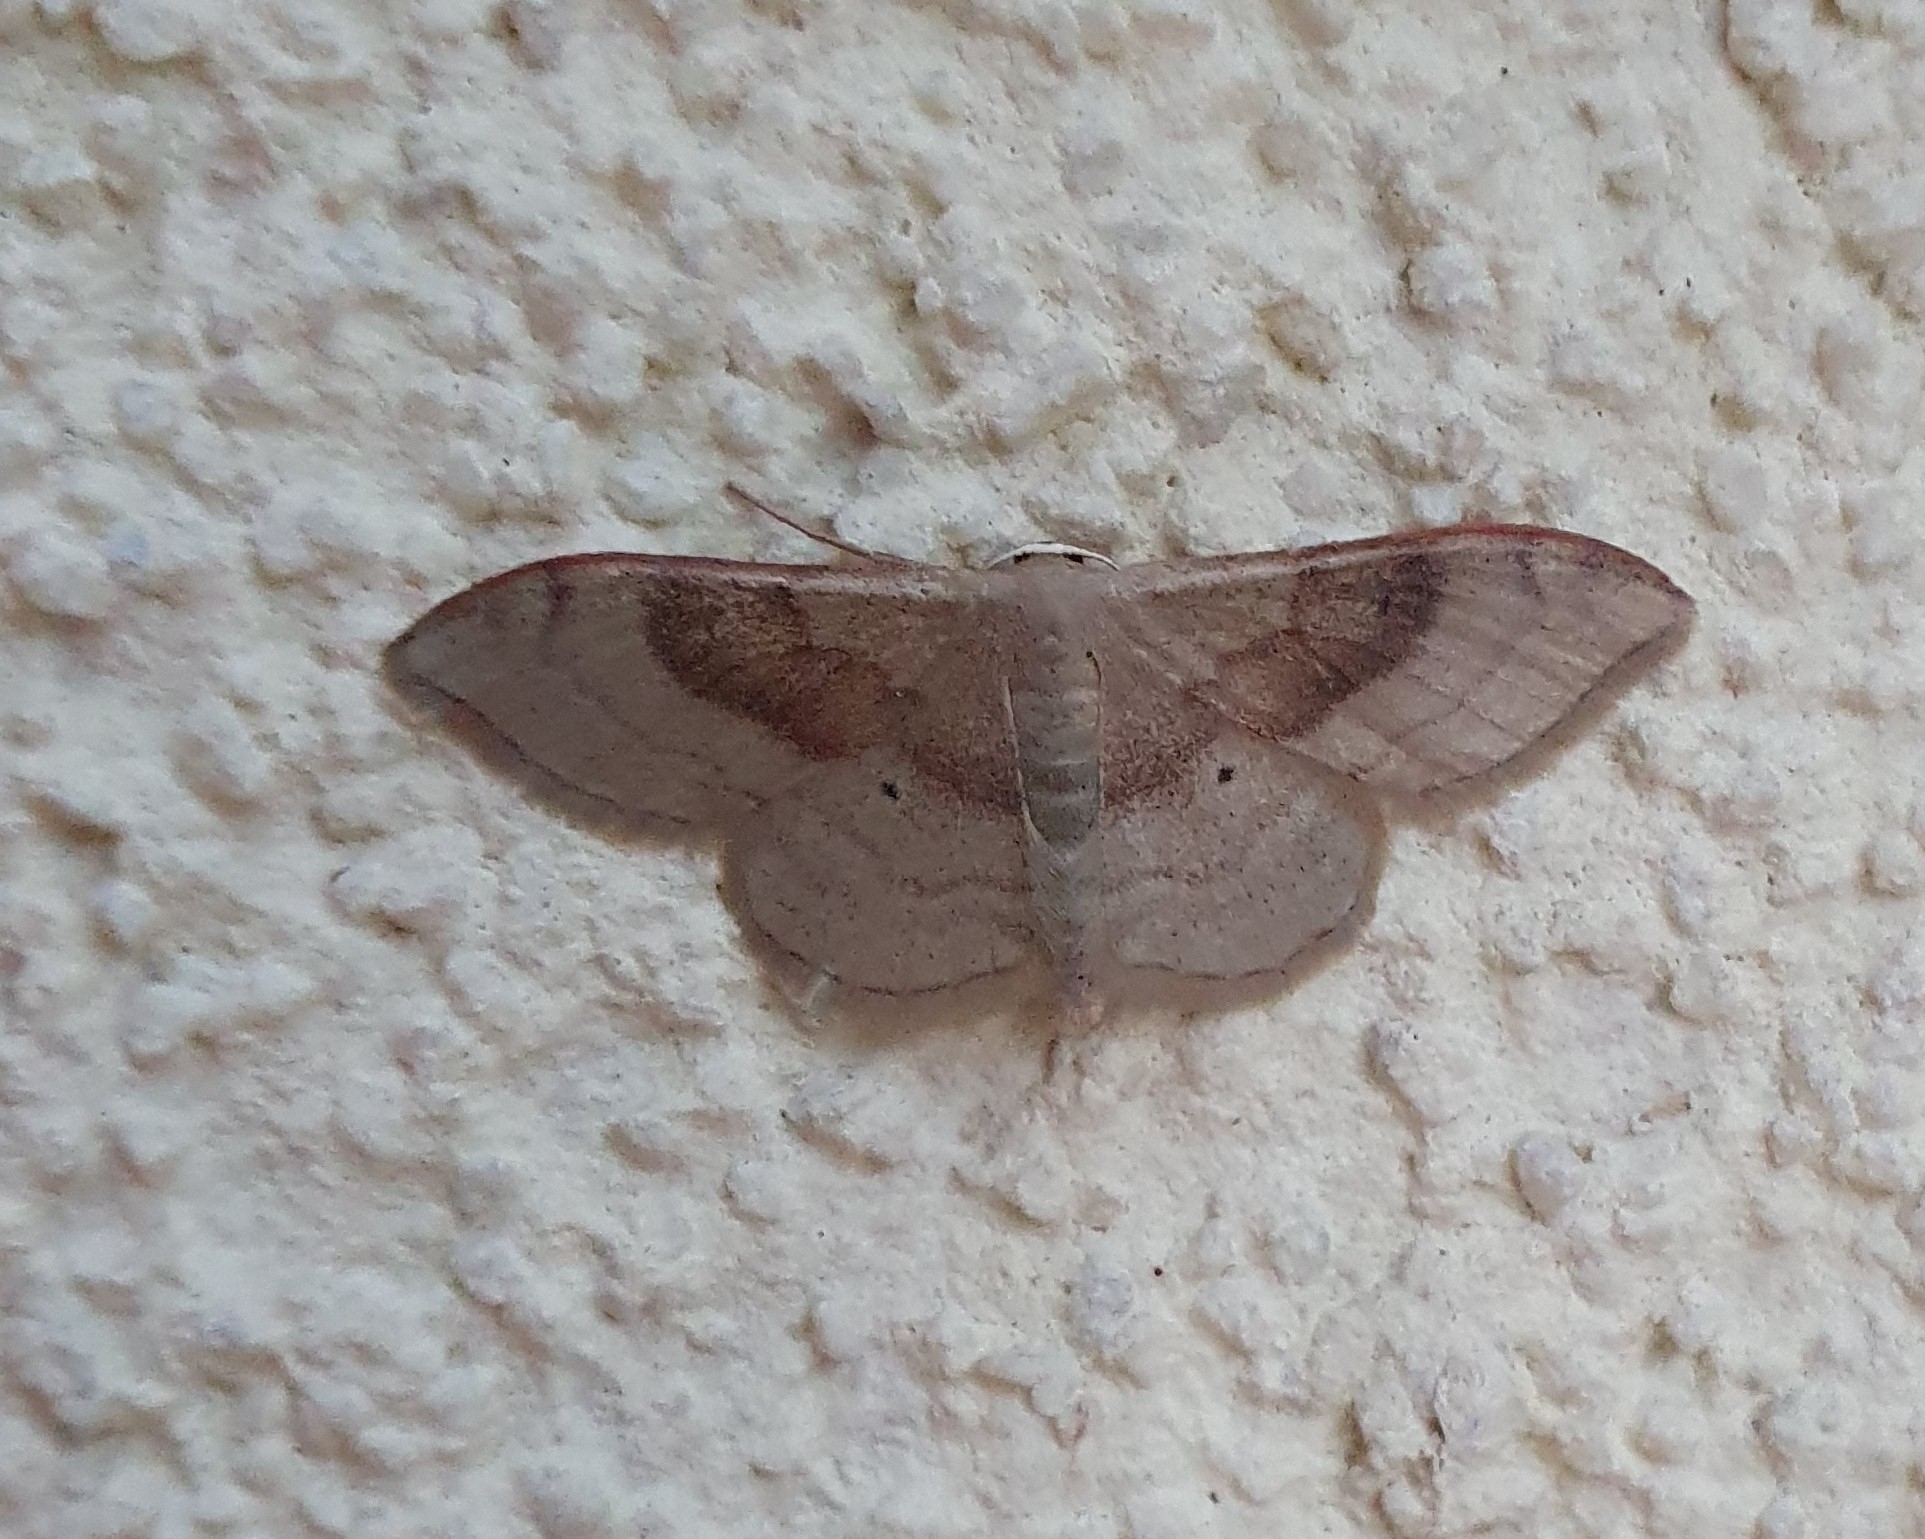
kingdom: Animalia
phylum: Arthropoda
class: Insecta
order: Lepidoptera
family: Geometridae
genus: Idaea
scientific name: Idaea degeneraria
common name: Portland ribbon wave
